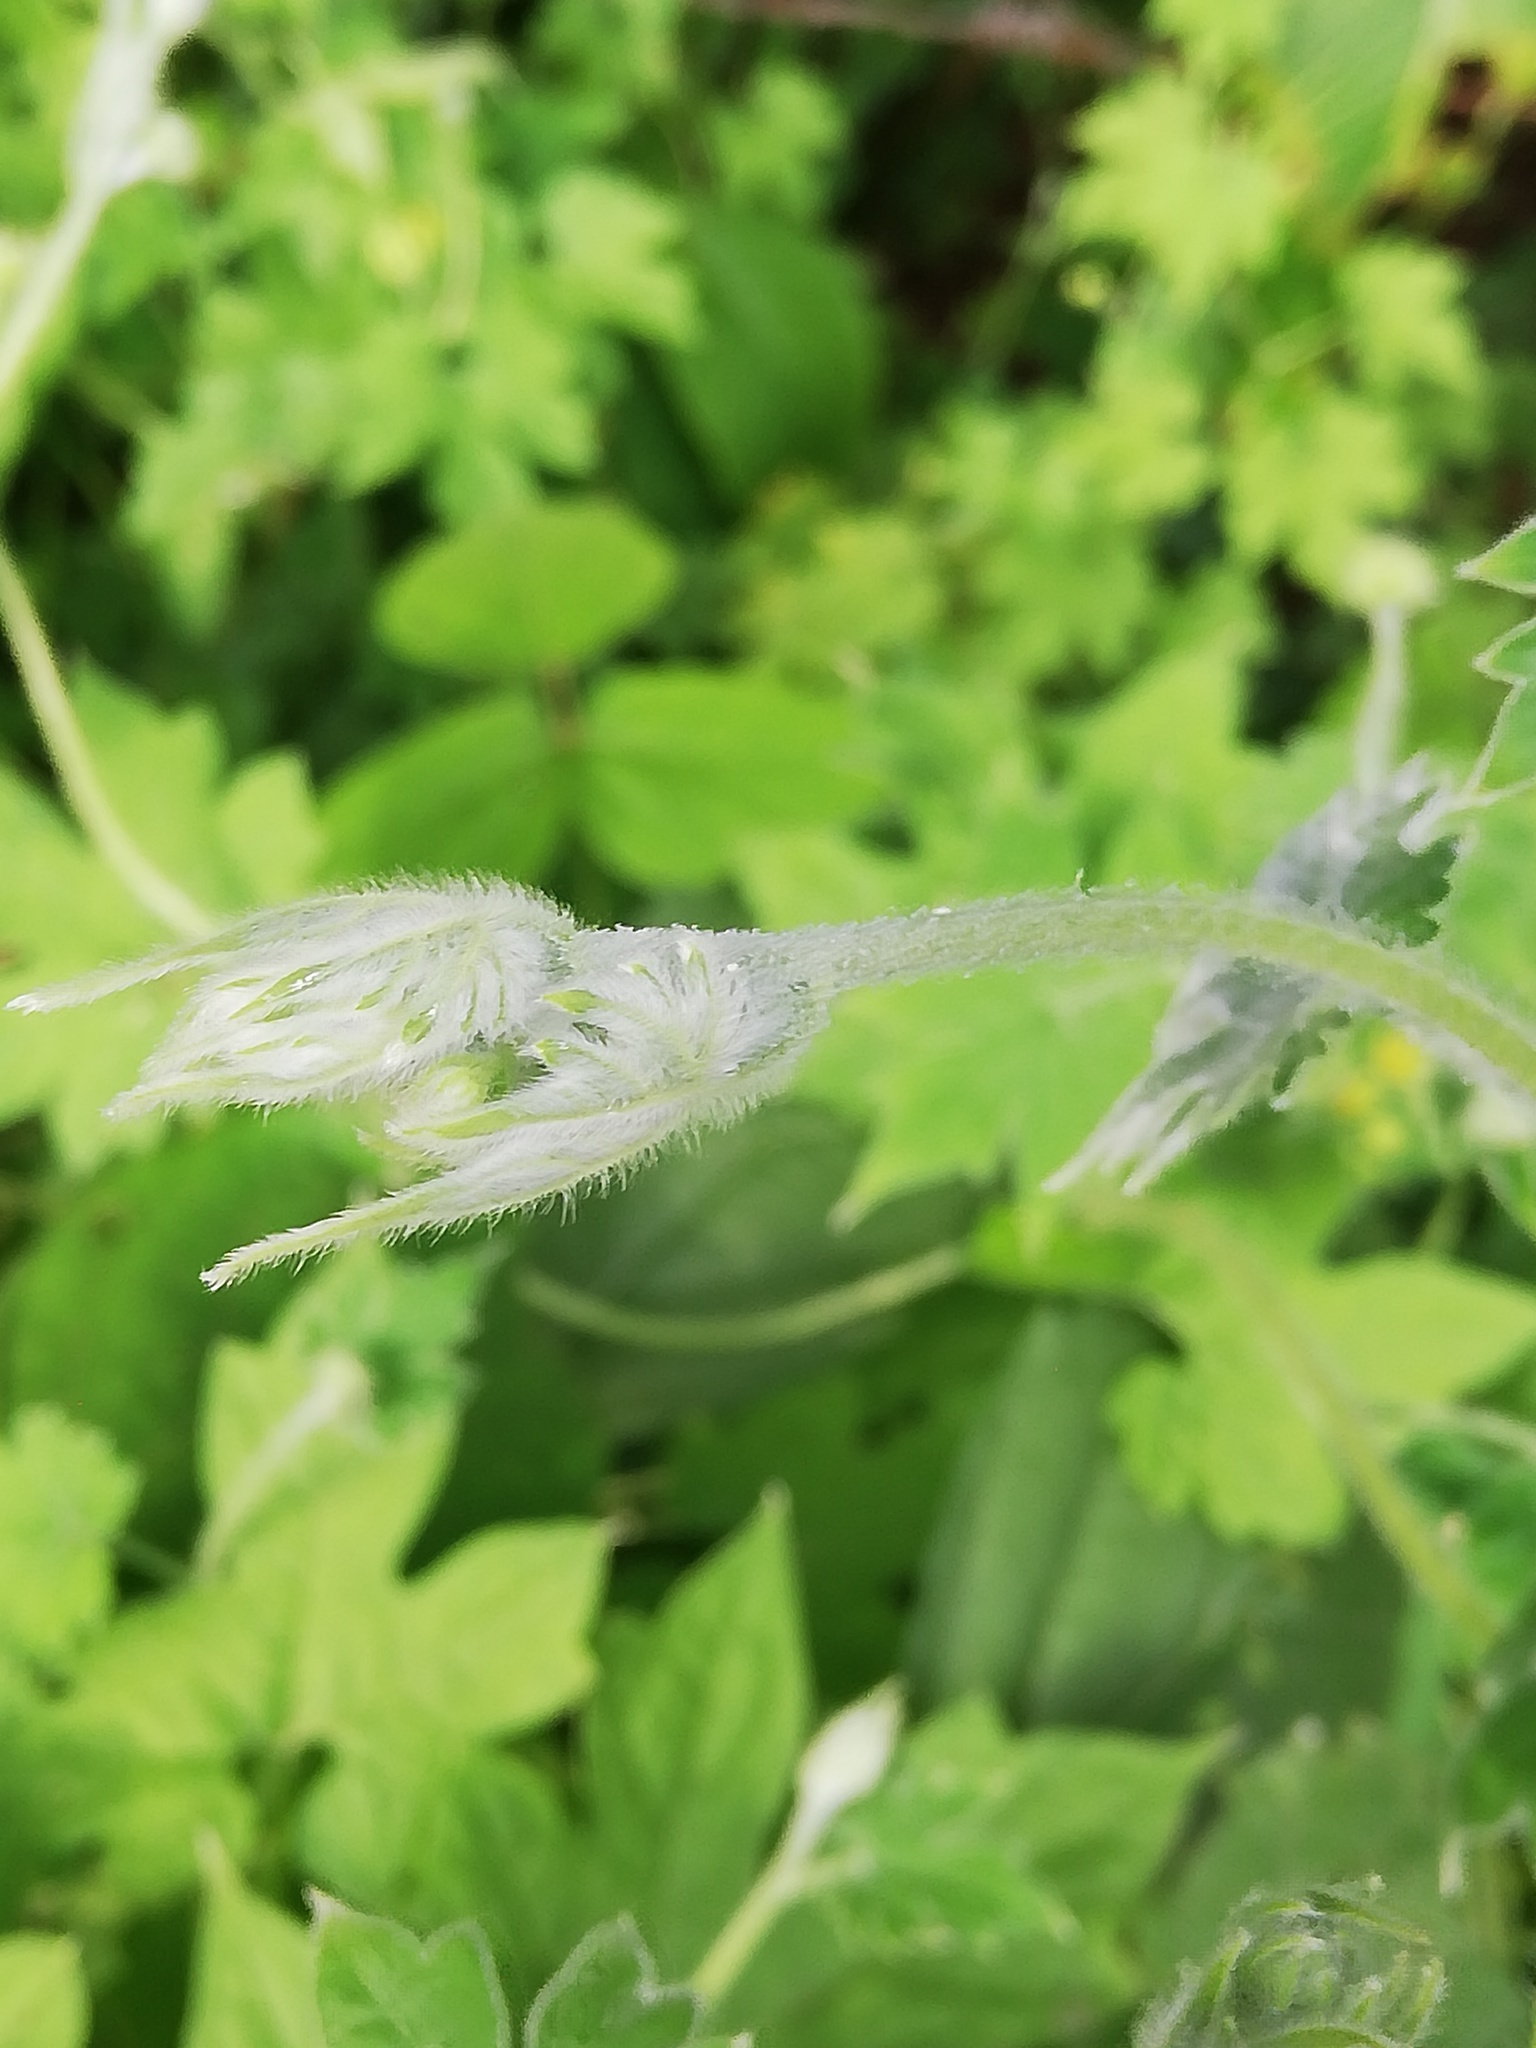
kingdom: Plantae
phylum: Tracheophyta
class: Magnoliopsida
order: Cornales
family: Loasaceae
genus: Gronovia
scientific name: Gronovia scandens
